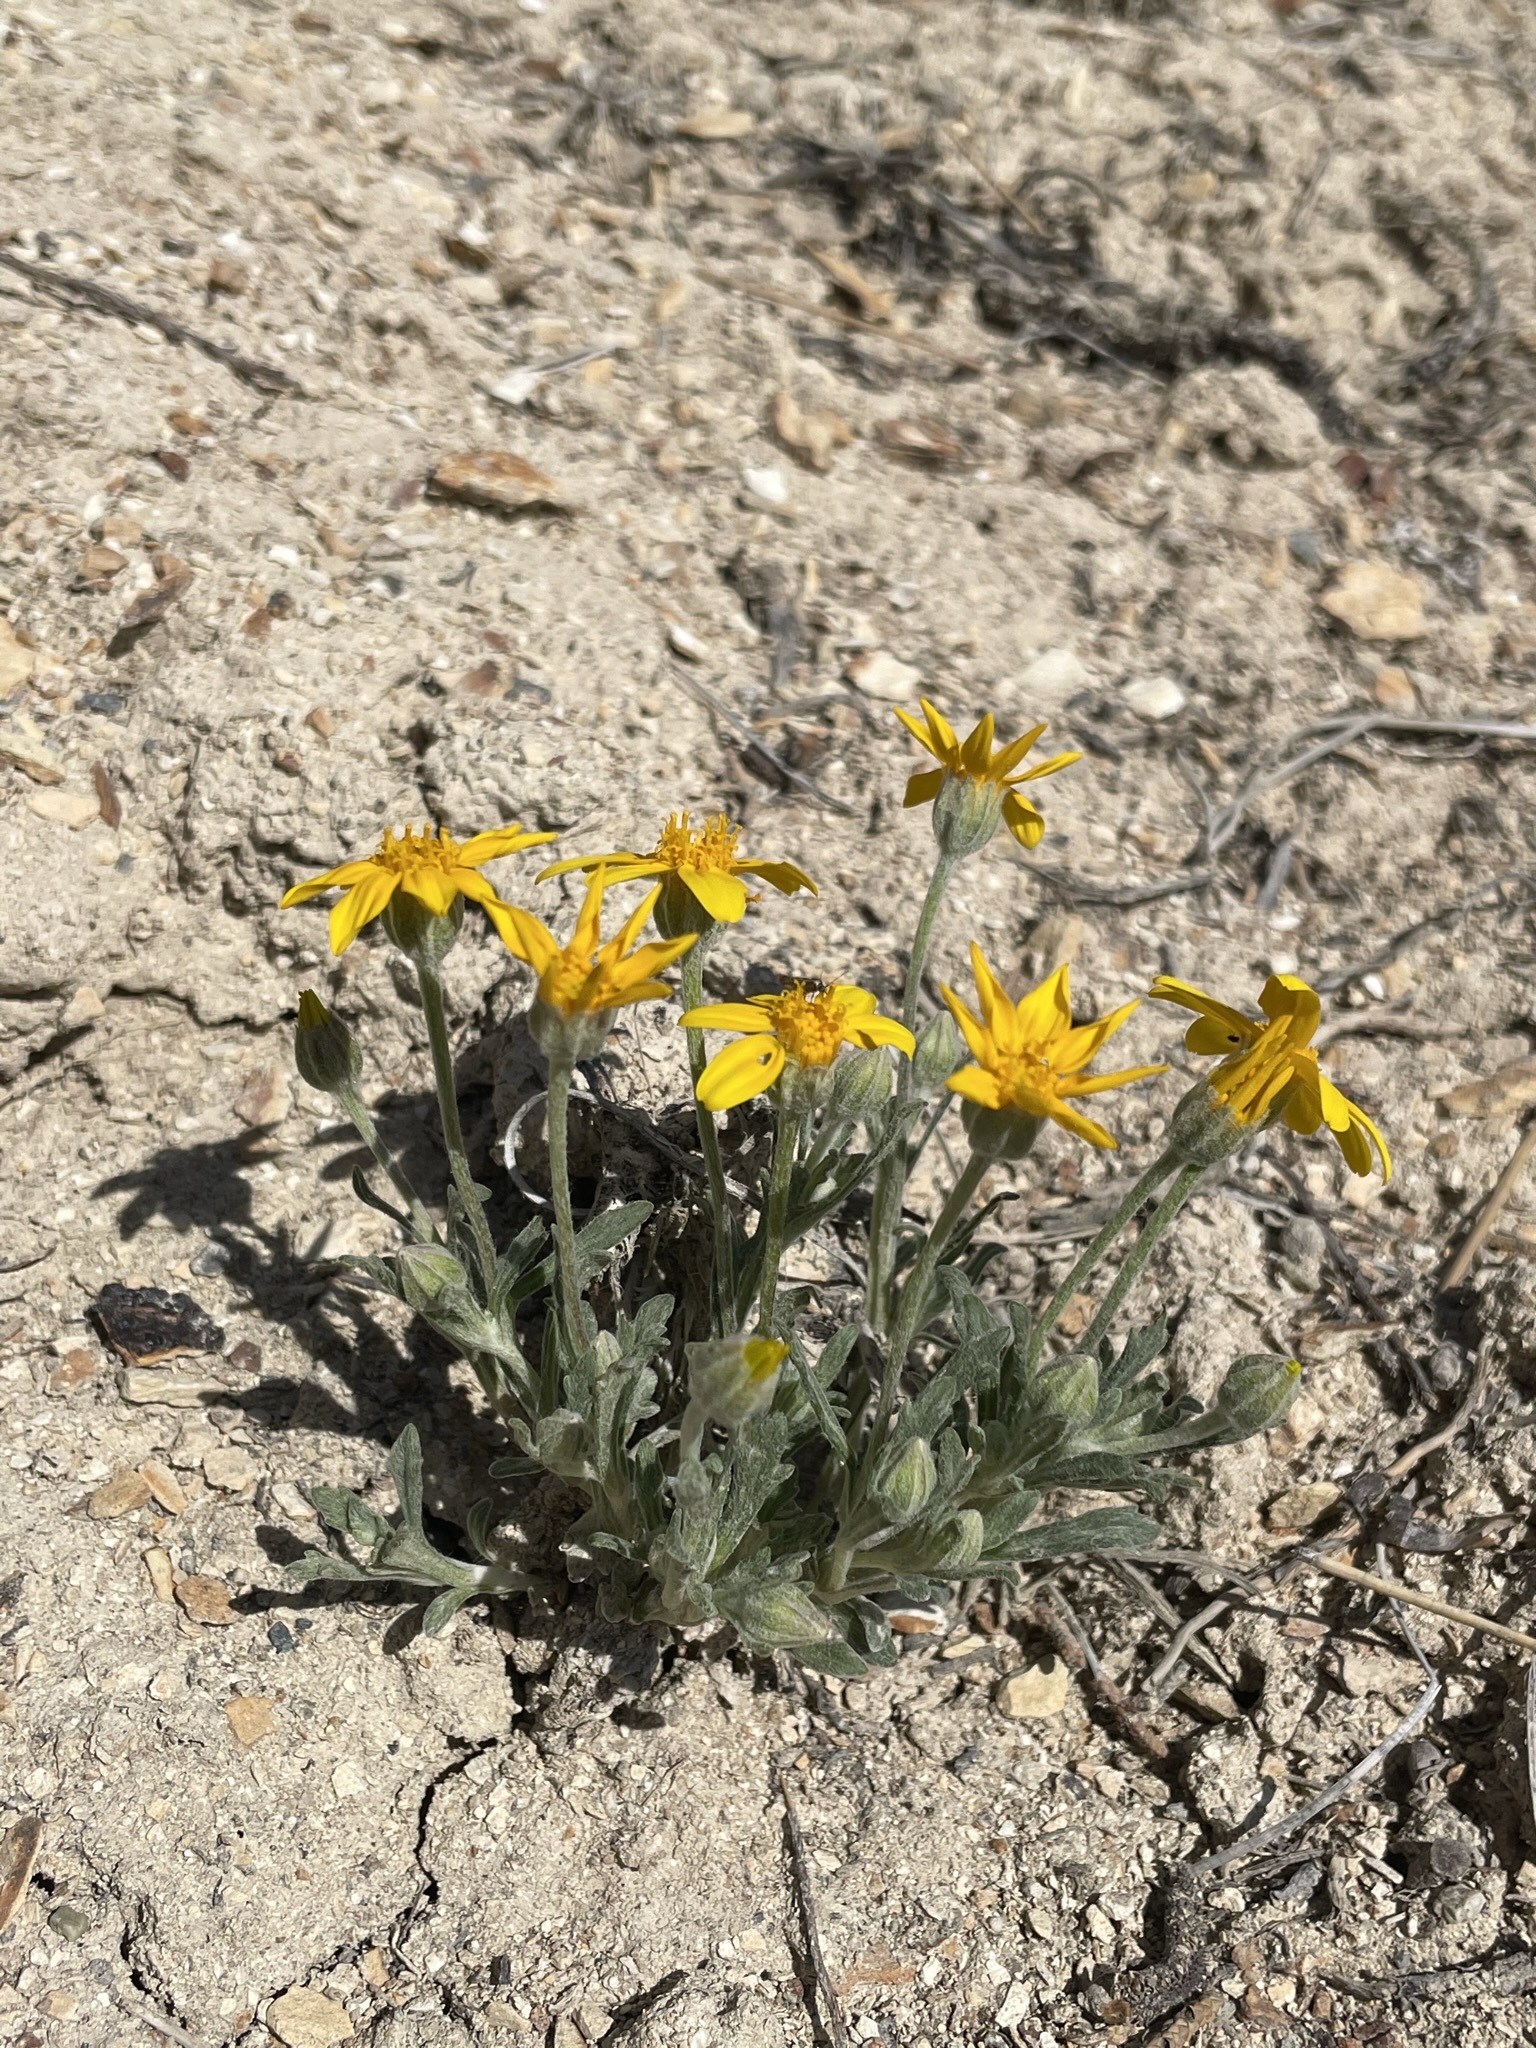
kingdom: Plantae
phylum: Tracheophyta
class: Magnoliopsida
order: Asterales
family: Asteraceae
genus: Eriophyllum
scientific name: Eriophyllum lanatum
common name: Common woolly-sunflower
